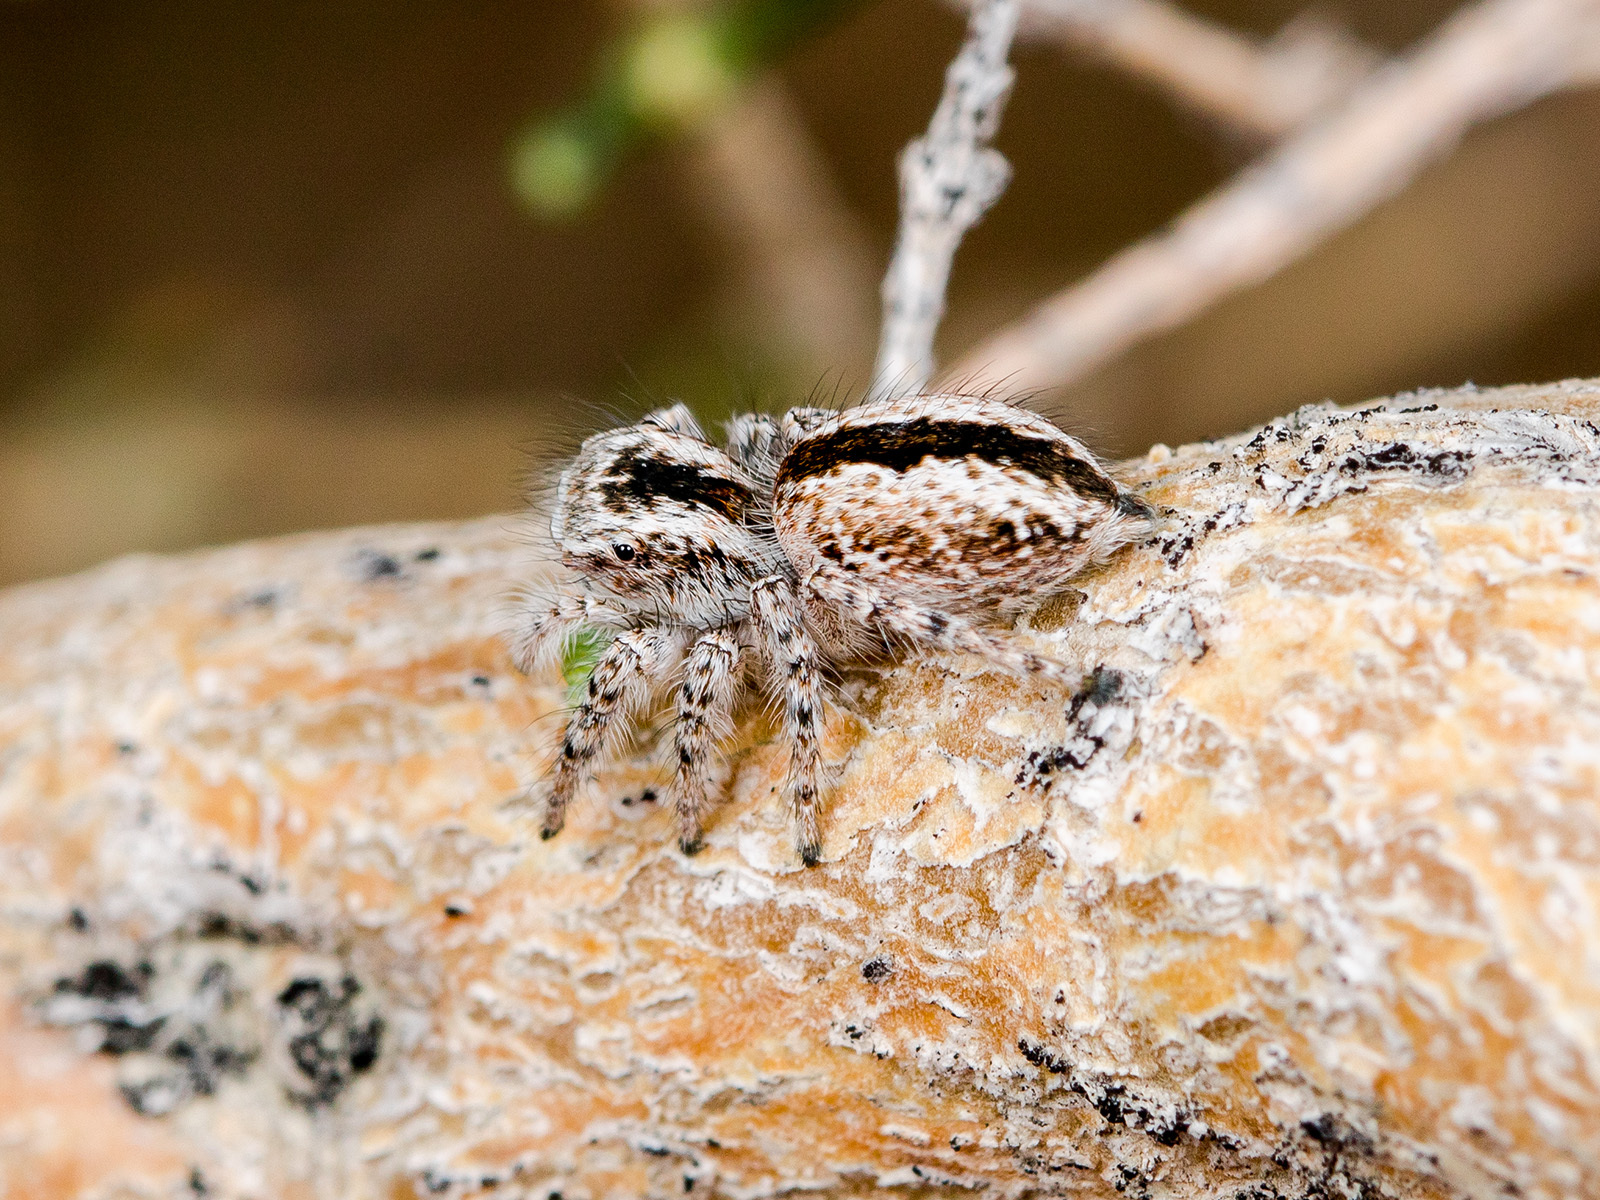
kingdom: Animalia
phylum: Arthropoda
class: Arachnida
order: Araneae
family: Salticidae
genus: Mogrus
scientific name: Mogrus antoninus
